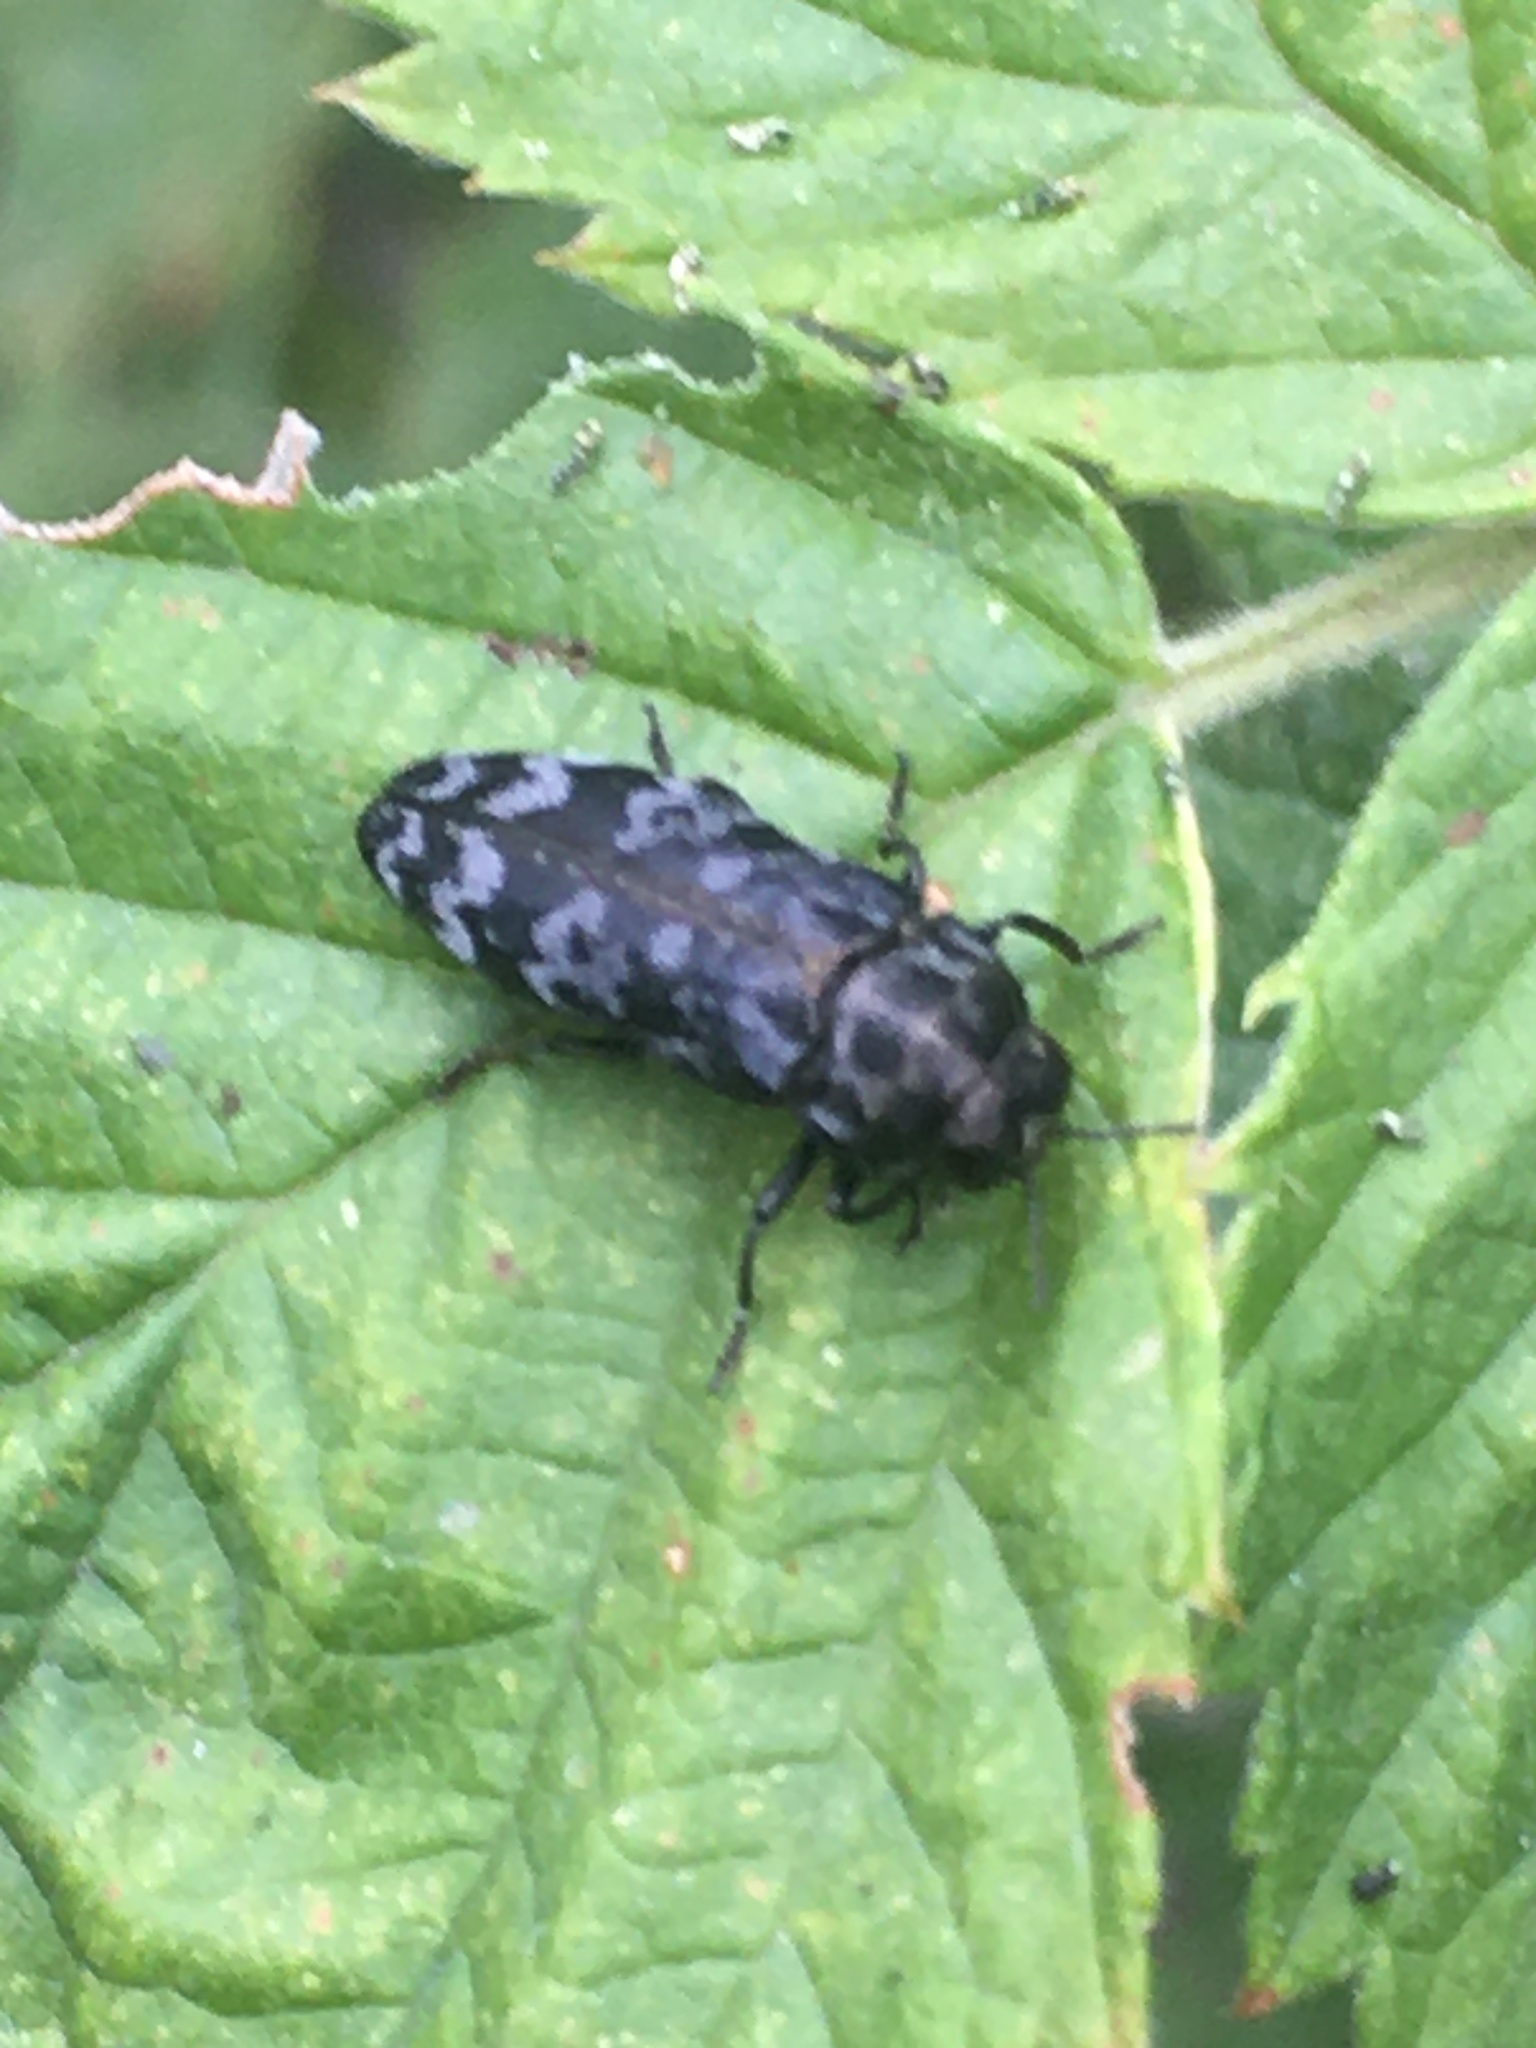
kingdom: Animalia
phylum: Arthropoda
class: Insecta
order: Coleoptera
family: Buprestidae
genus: Coraebus
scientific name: Coraebus rubi
